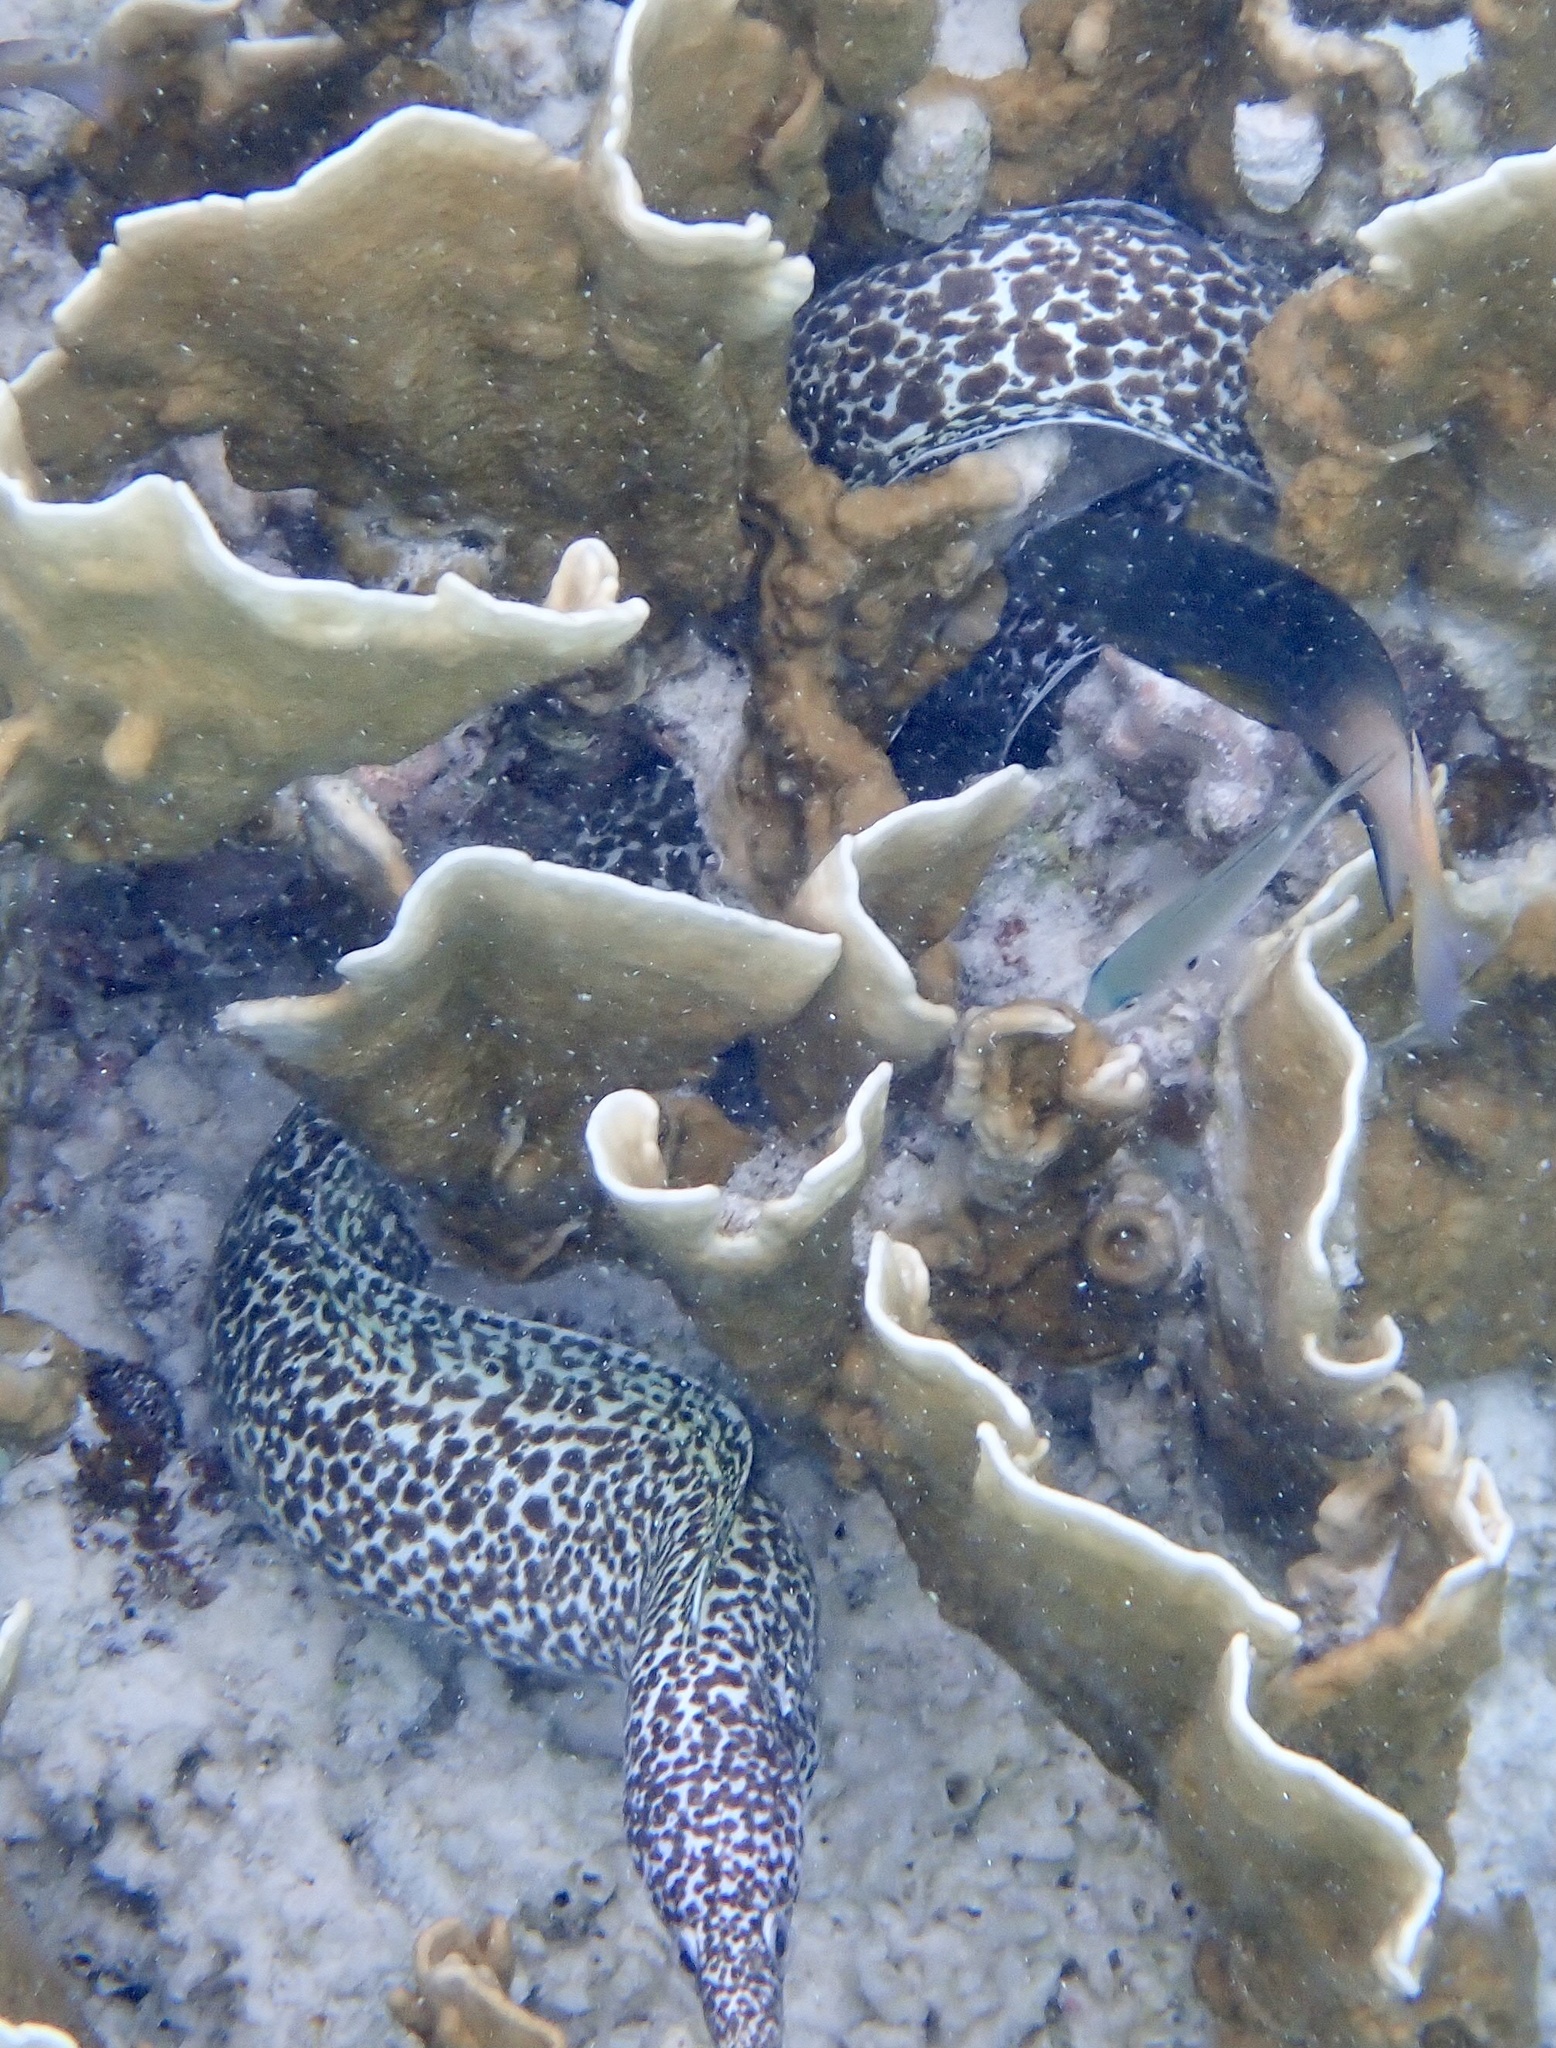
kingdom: Animalia
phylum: Chordata
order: Anguilliformes
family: Muraenidae
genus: Gymnothorax
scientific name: Gymnothorax moringa
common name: Spotted moray
